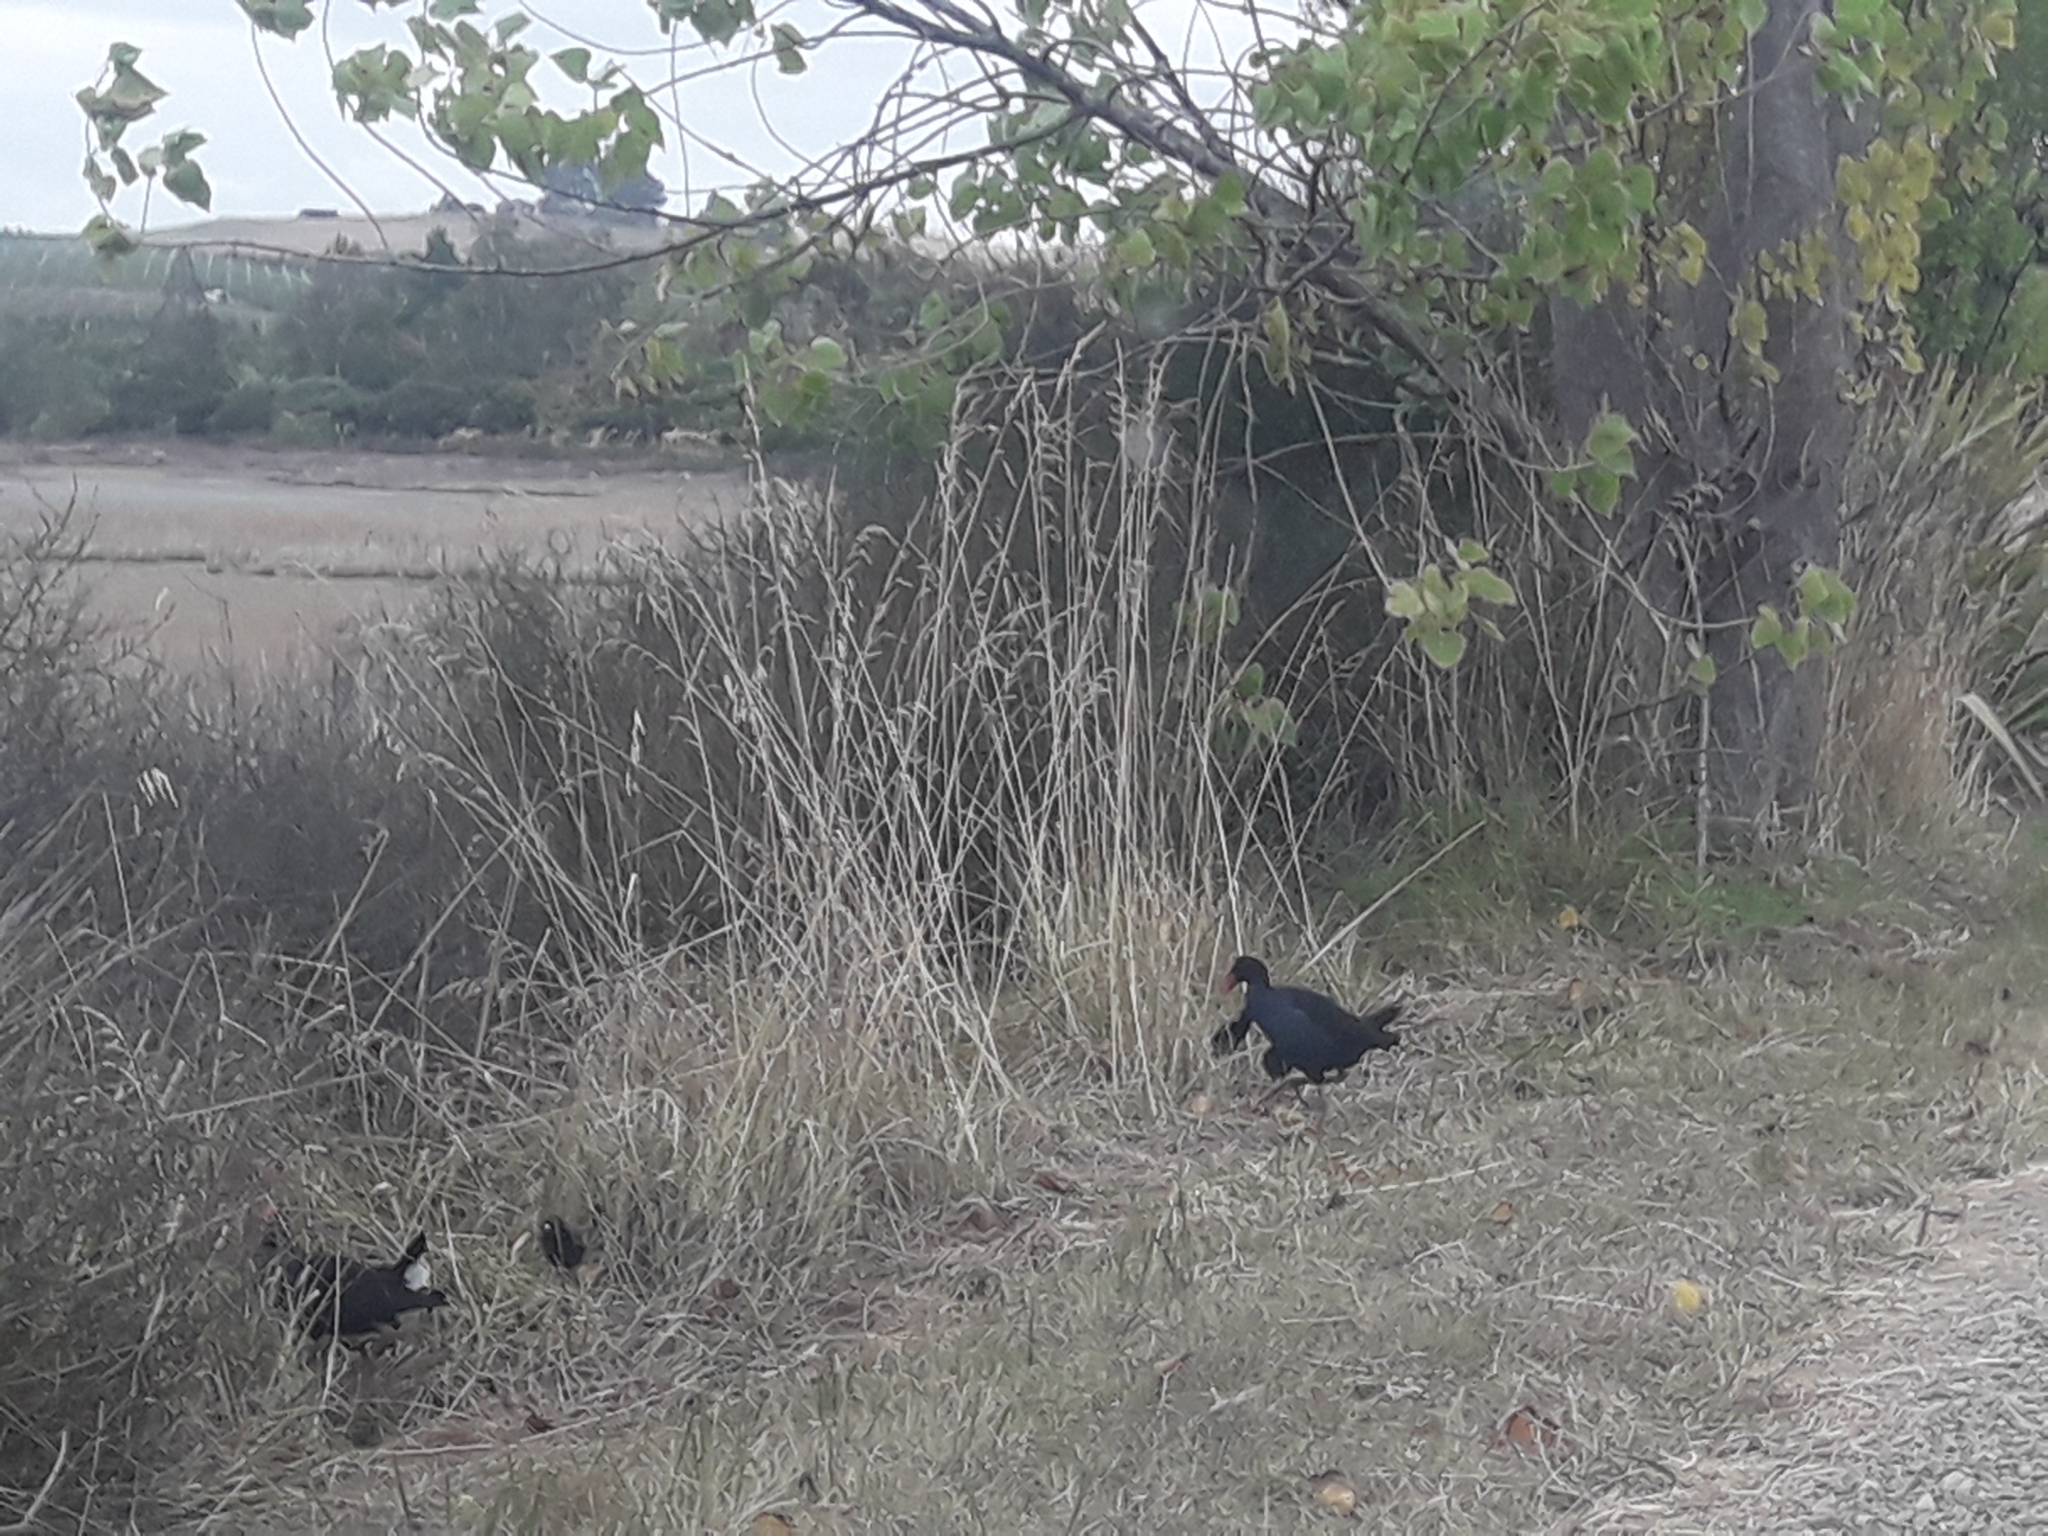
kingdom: Animalia
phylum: Chordata
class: Aves
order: Gruiformes
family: Rallidae
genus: Porphyrio
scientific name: Porphyrio melanotus
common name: Australasian swamphen
